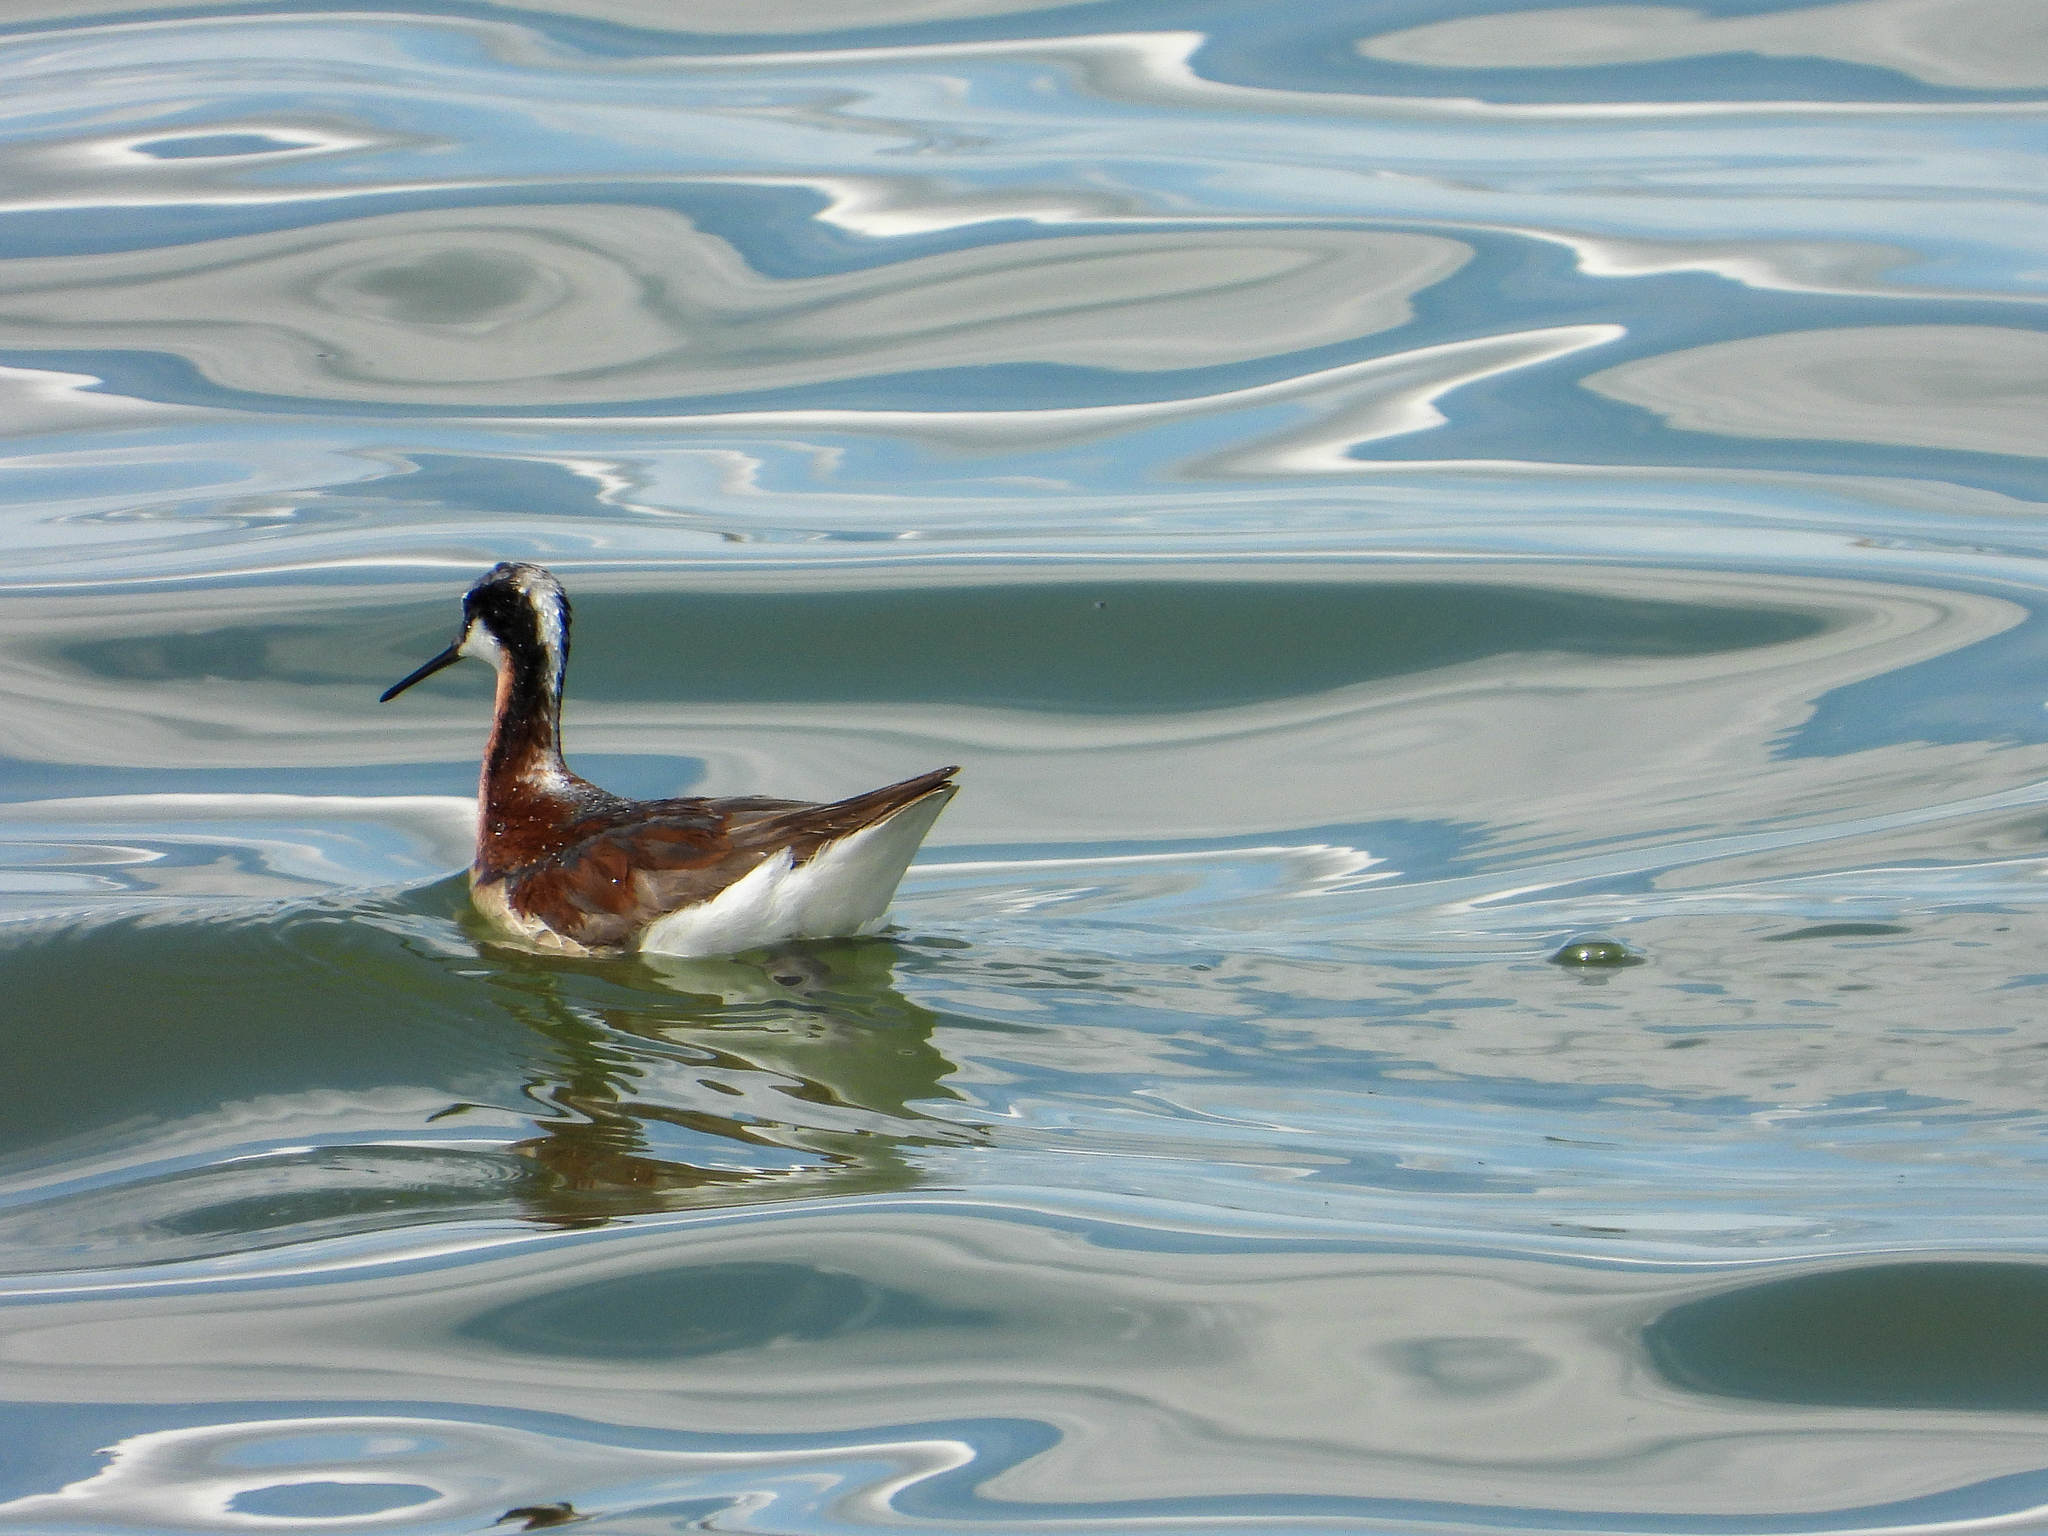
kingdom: Animalia
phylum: Chordata
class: Aves
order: Charadriiformes
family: Scolopacidae
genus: Phalaropus
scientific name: Phalaropus tricolor
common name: Wilson's phalarope
